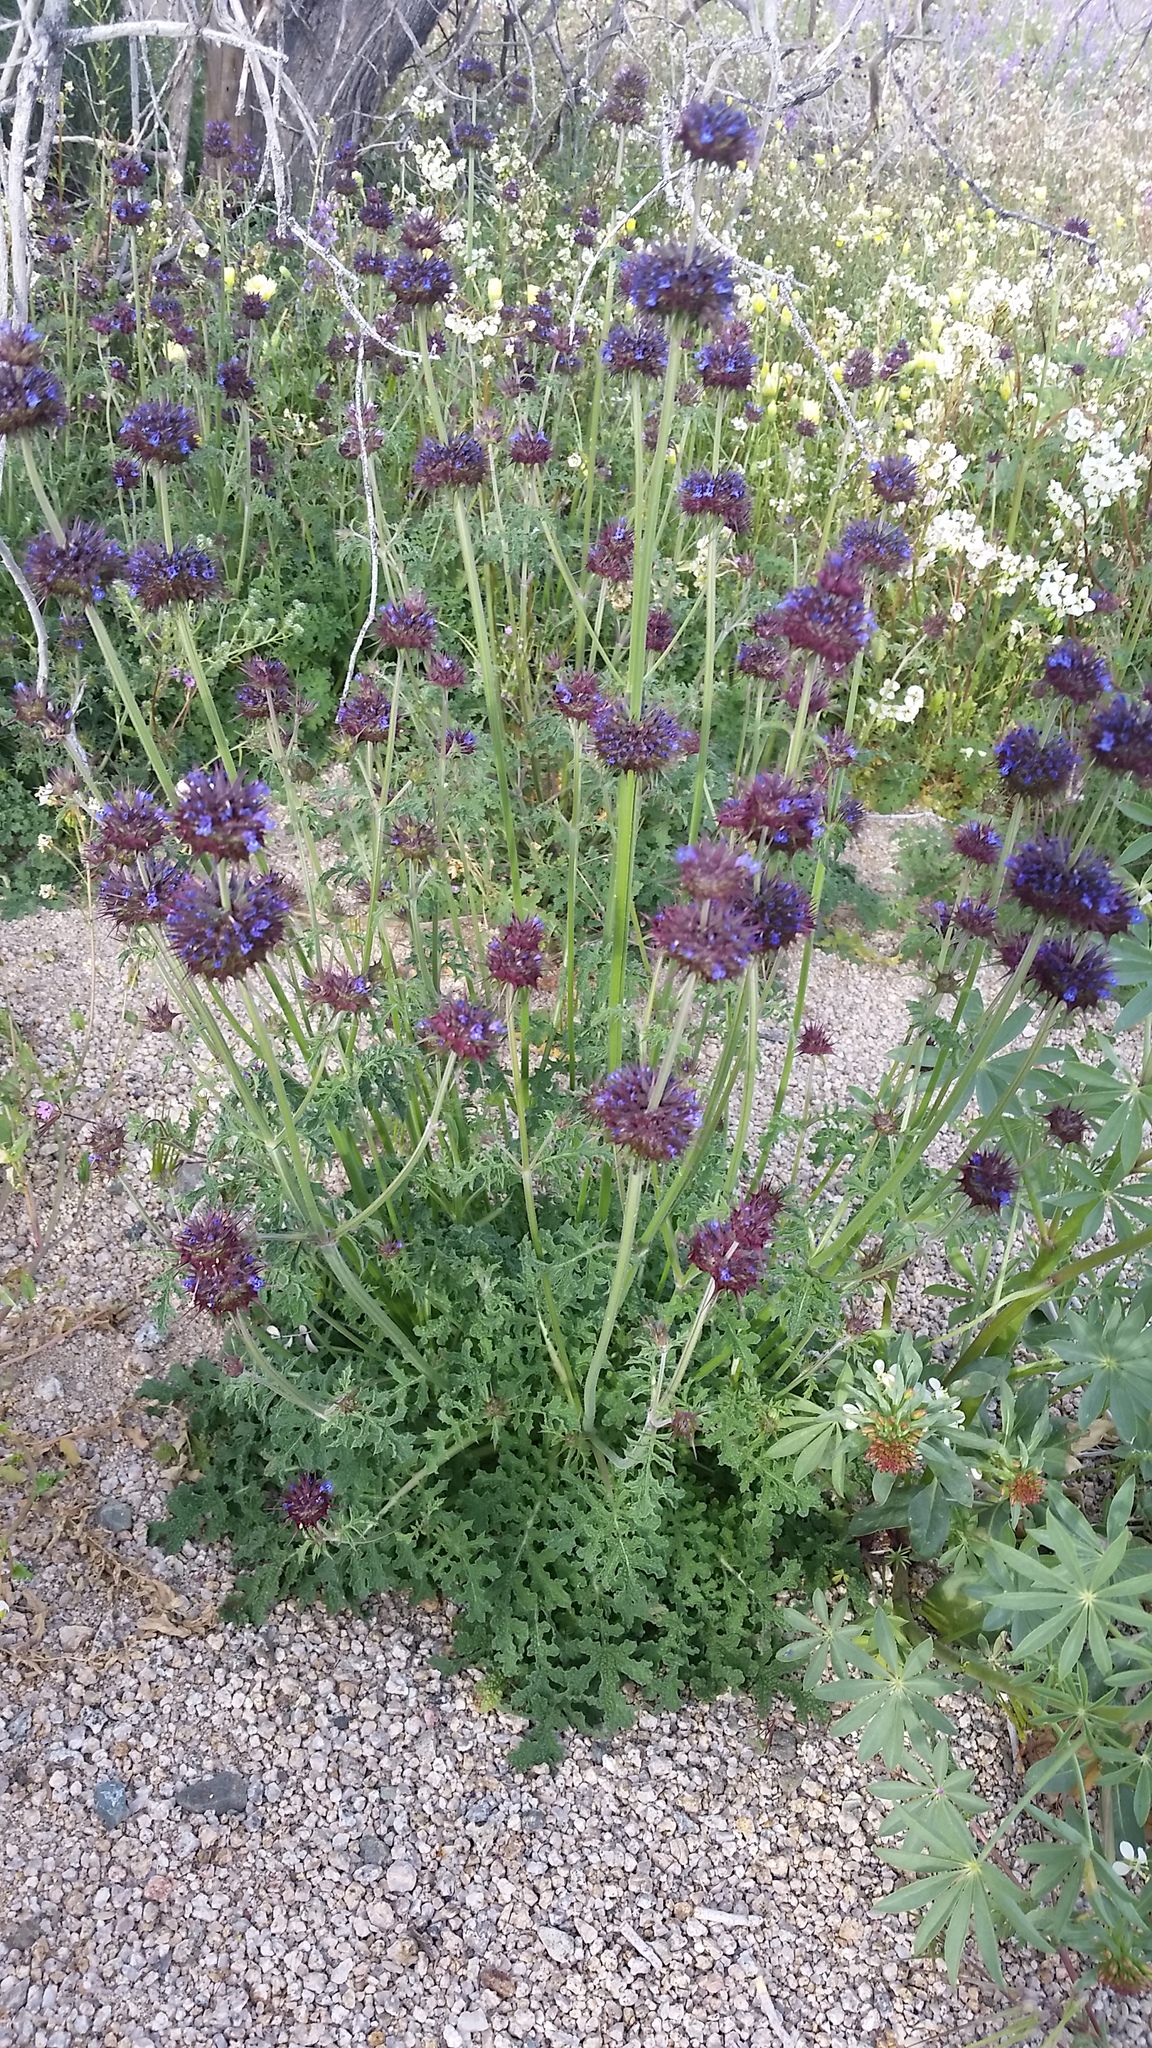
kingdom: Plantae
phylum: Tracheophyta
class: Magnoliopsida
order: Lamiales
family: Lamiaceae
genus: Salvia
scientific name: Salvia columbariae
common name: Chia
